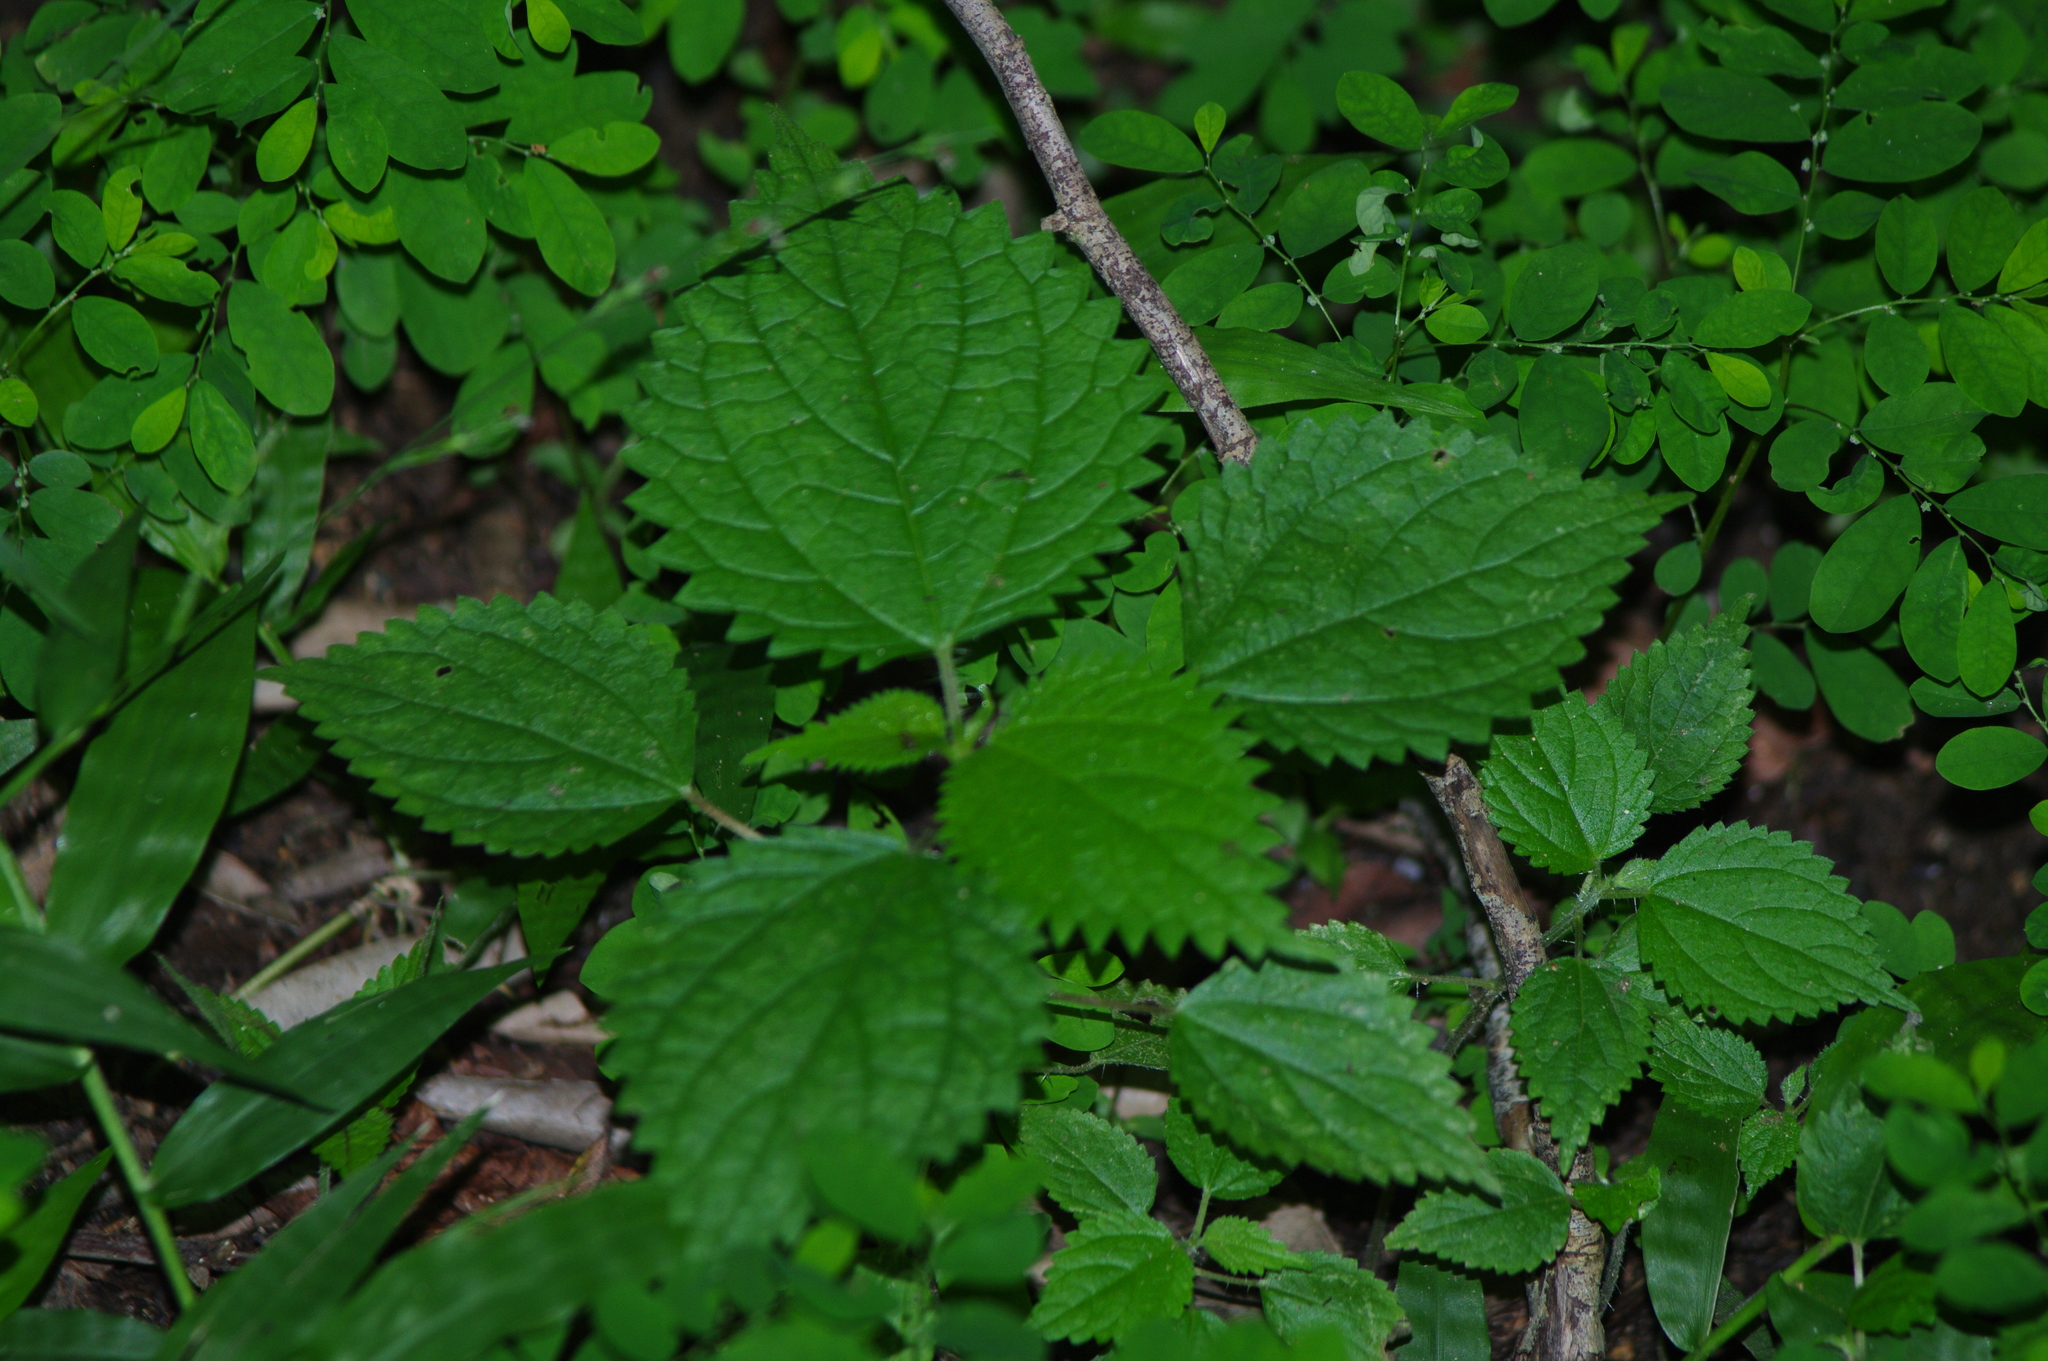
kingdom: Plantae
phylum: Tracheophyta
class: Magnoliopsida
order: Rosales
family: Urticaceae
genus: Urtica
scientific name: Urtica urens
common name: Dwarf nettle
